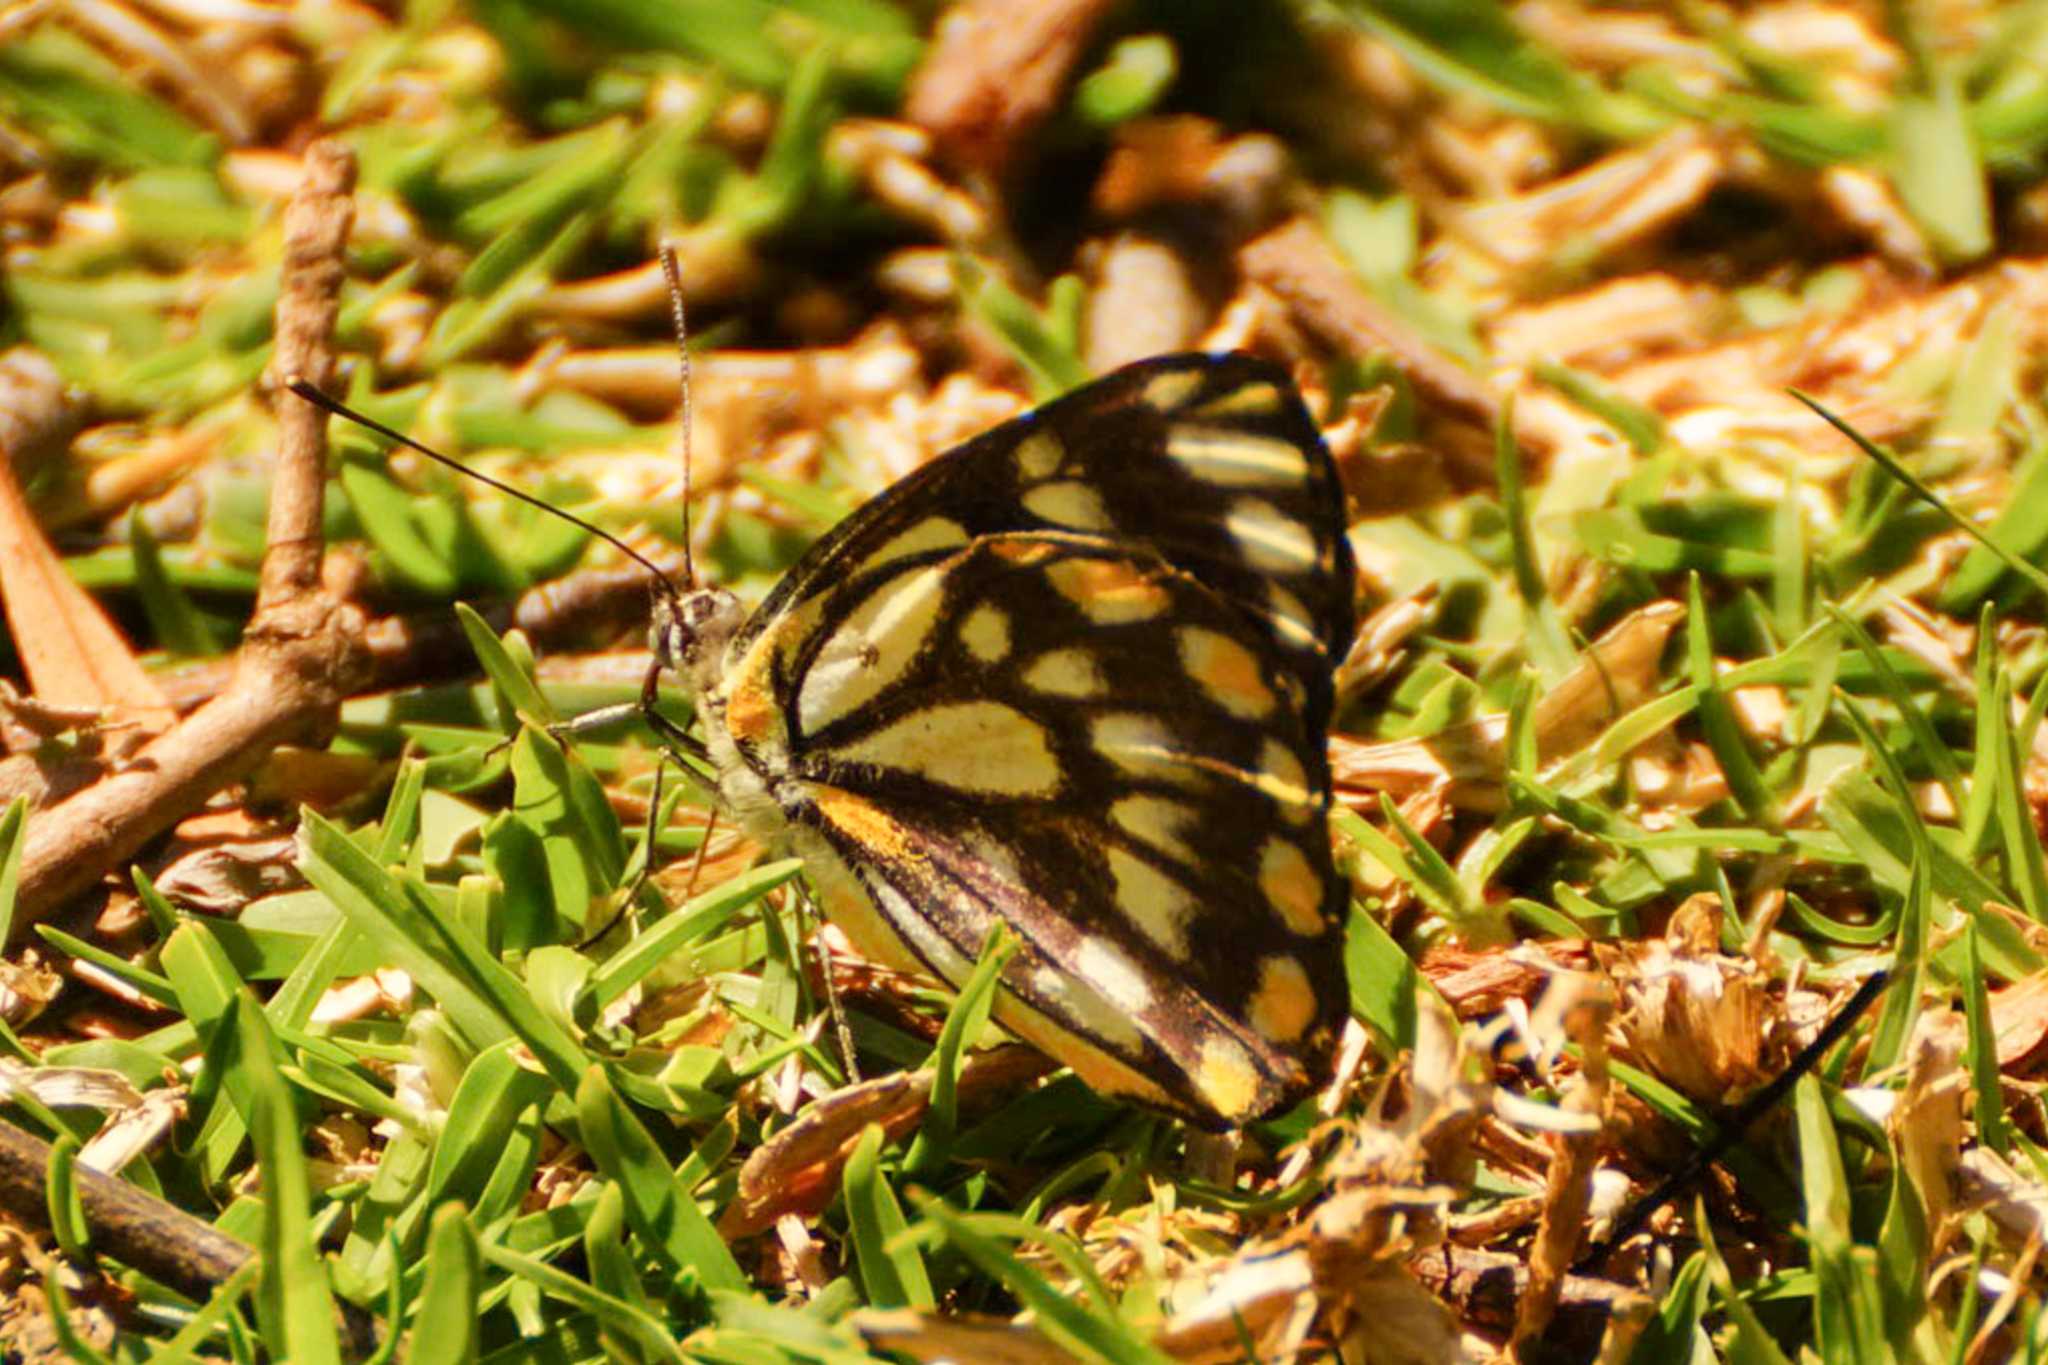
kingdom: Animalia
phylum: Arthropoda
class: Insecta
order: Lepidoptera
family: Pieridae
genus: Belenois
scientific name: Belenois java
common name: Caper white
